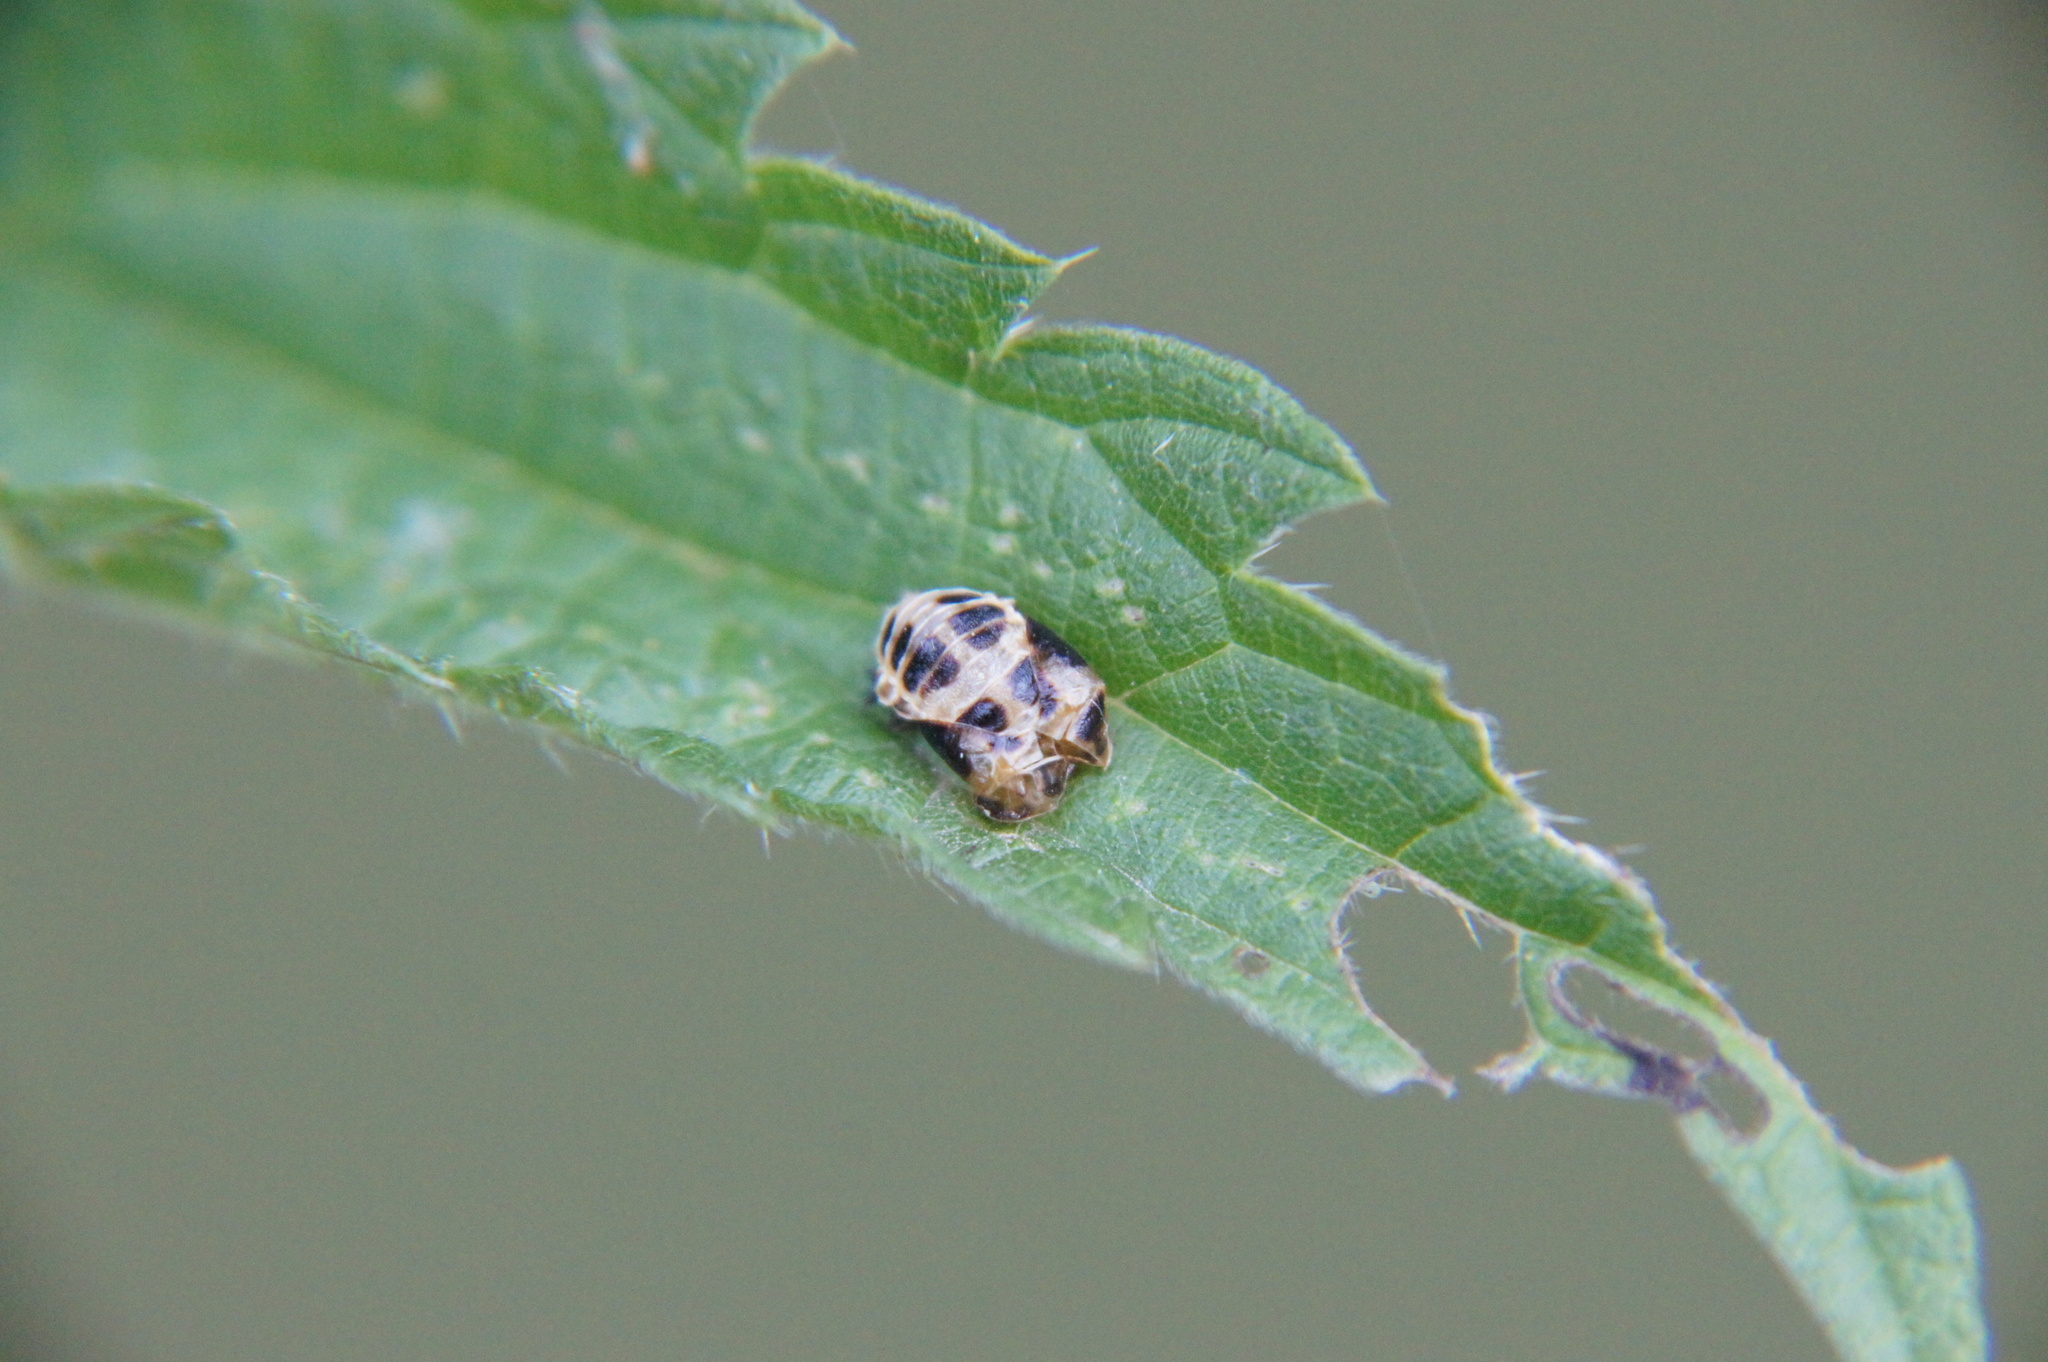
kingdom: Animalia
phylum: Arthropoda
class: Insecta
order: Coleoptera
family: Coccinellidae
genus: Harmonia
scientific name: Harmonia axyridis
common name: Harlequin ladybird
